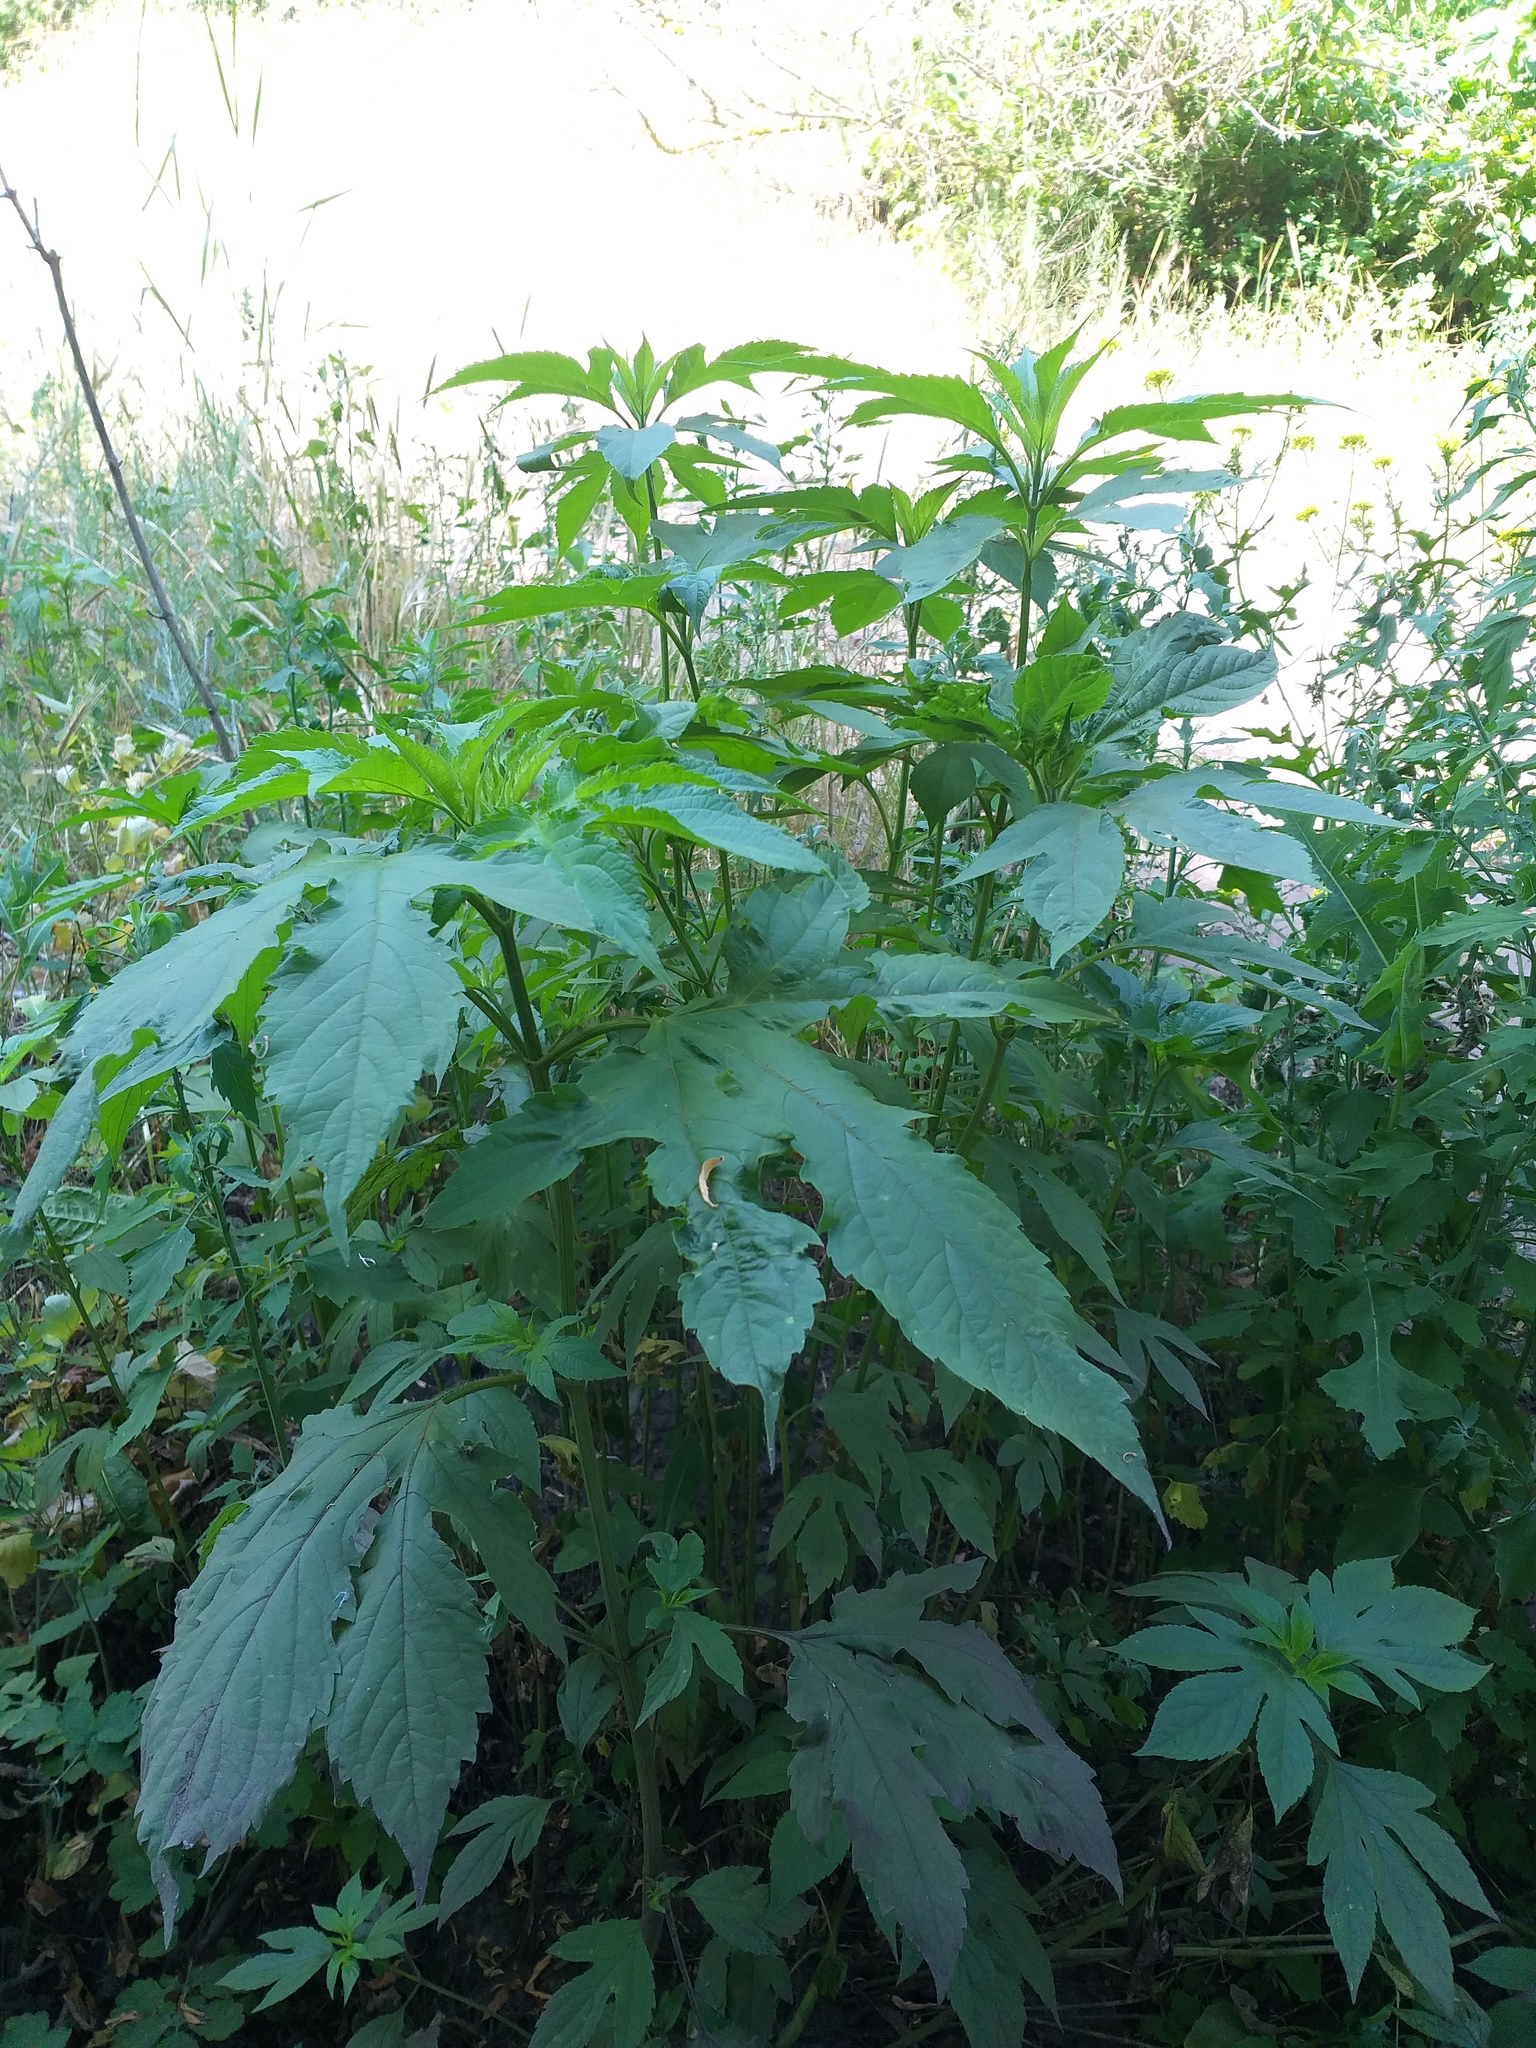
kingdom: Plantae
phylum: Tracheophyta
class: Magnoliopsida
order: Asterales
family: Asteraceae
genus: Ambrosia
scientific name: Ambrosia trifida
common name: Giant ragweed
